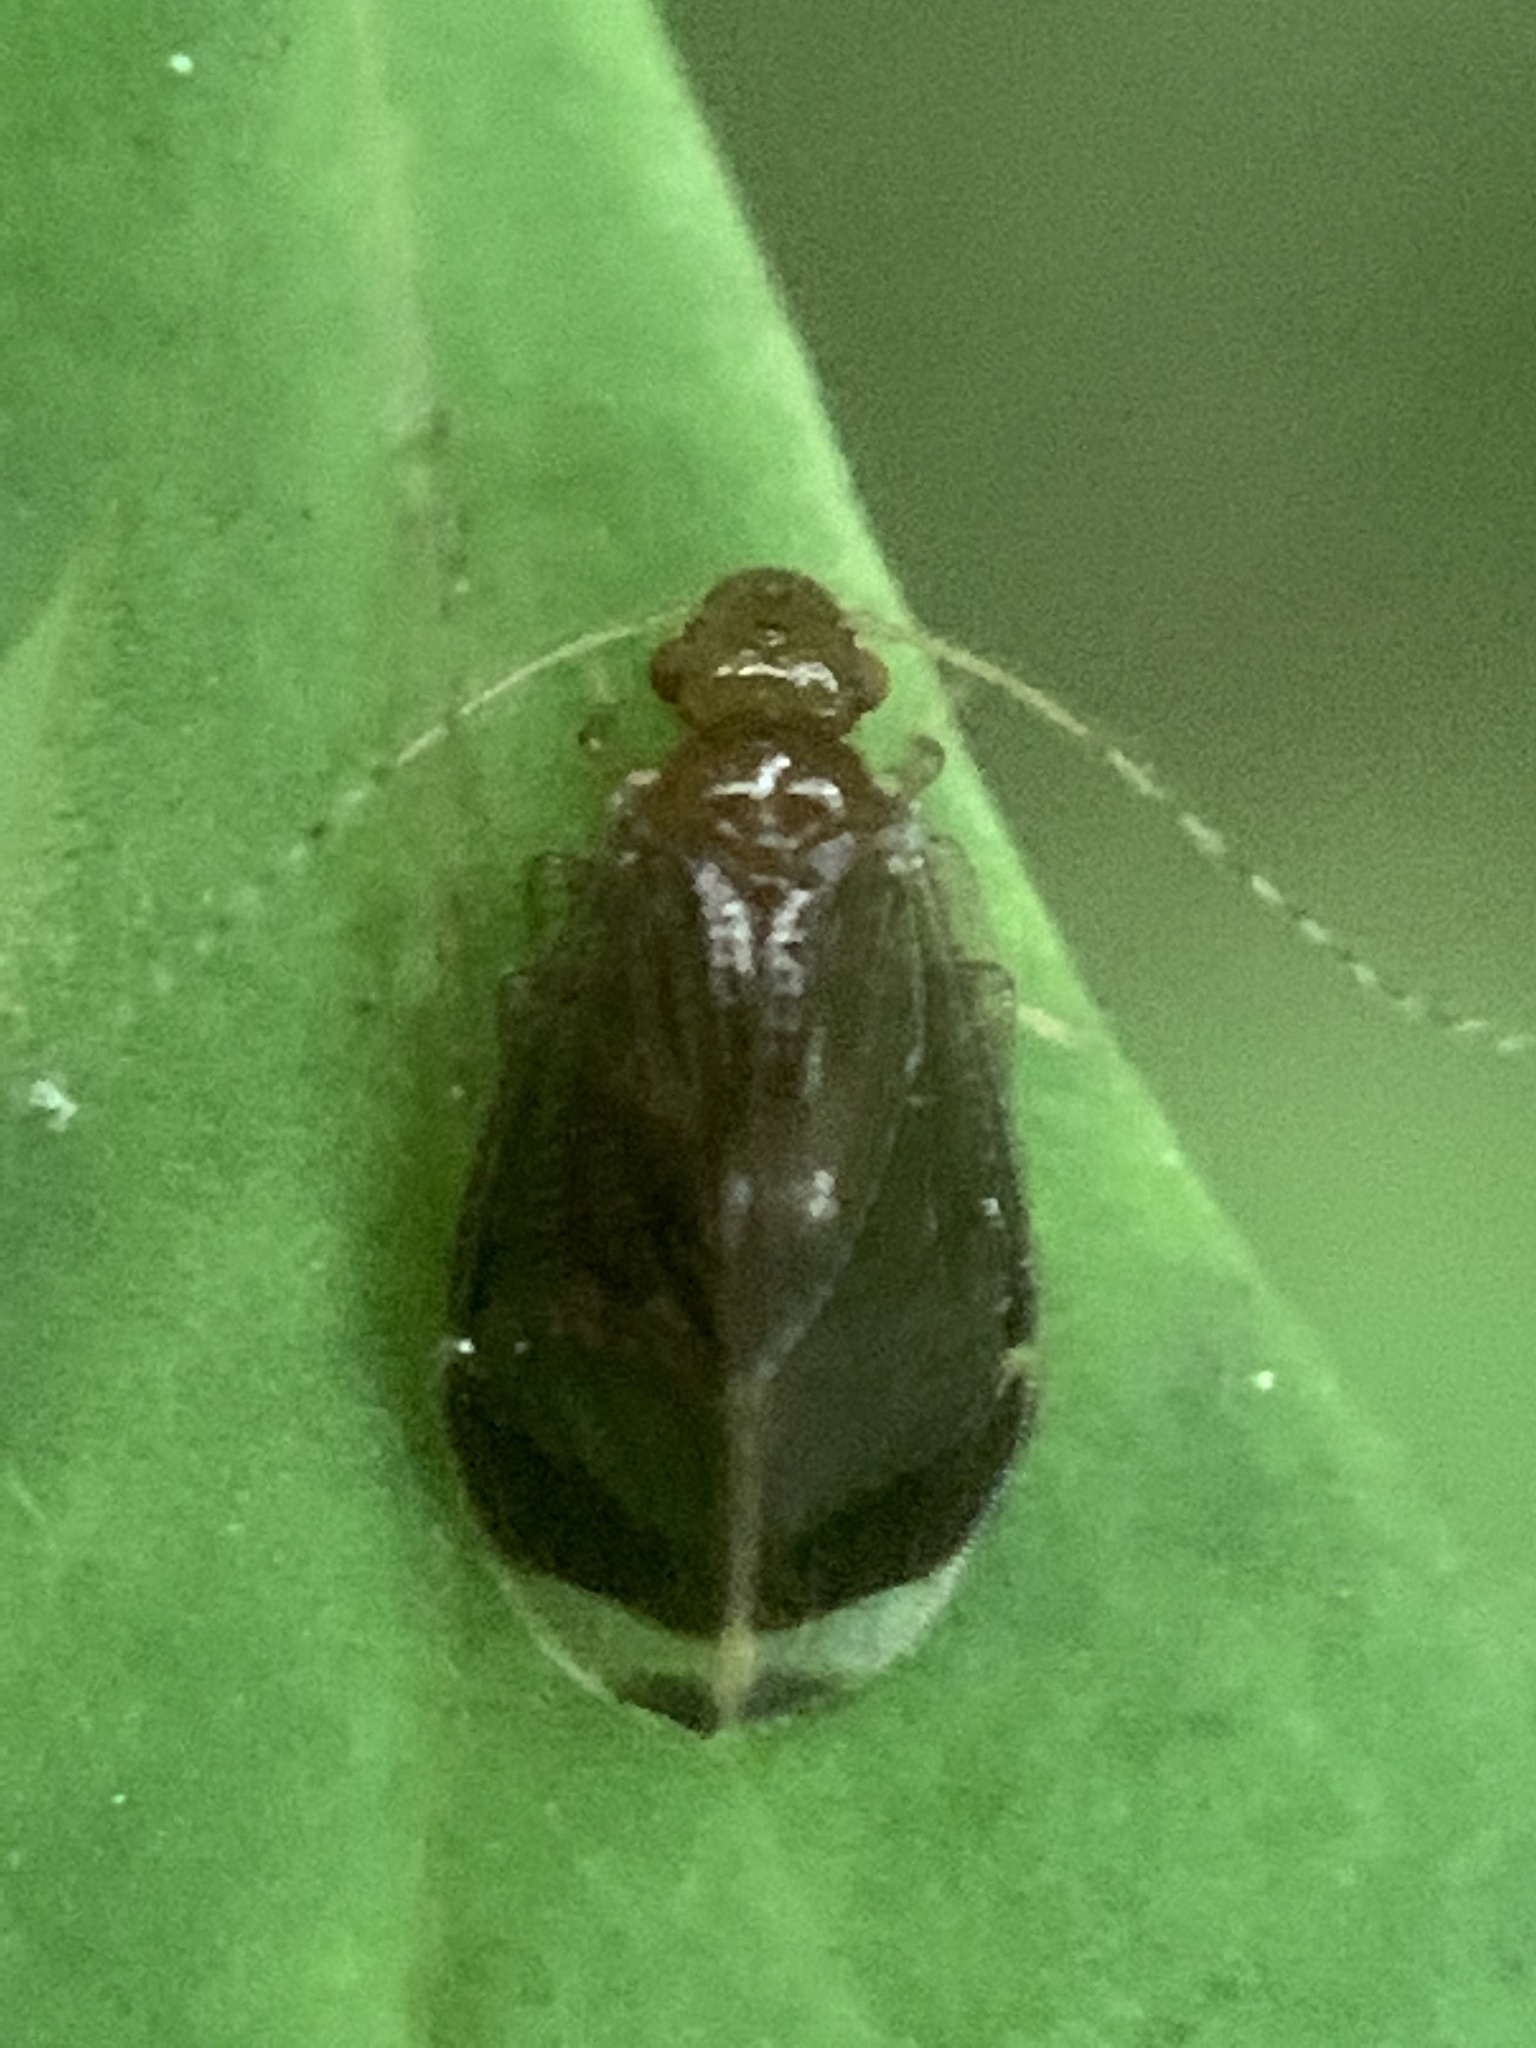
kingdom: Animalia
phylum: Arthropoda
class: Insecta
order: Psocodea
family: Amphipsocidae
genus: Polypsocus
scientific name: Polypsocus corruptus
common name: Corrupt barklouse
